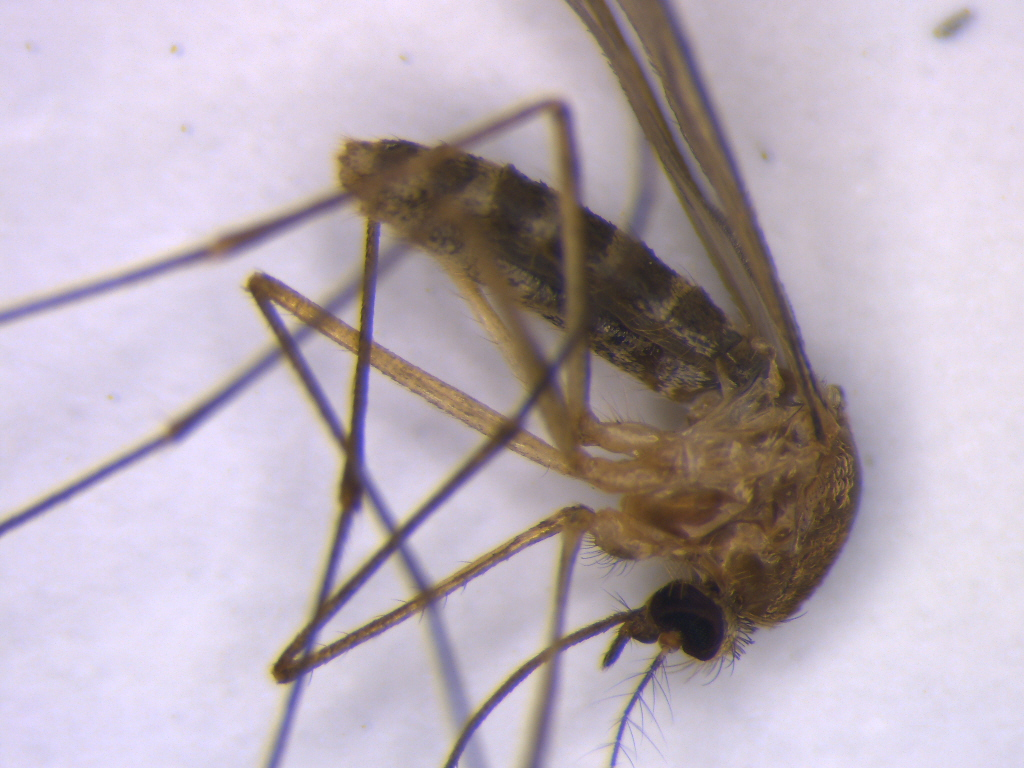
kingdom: Animalia
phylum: Arthropoda
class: Insecta
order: Diptera
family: Culicidae
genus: Culex
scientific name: Culex quinquefasciatus
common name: Southern house mosquito
